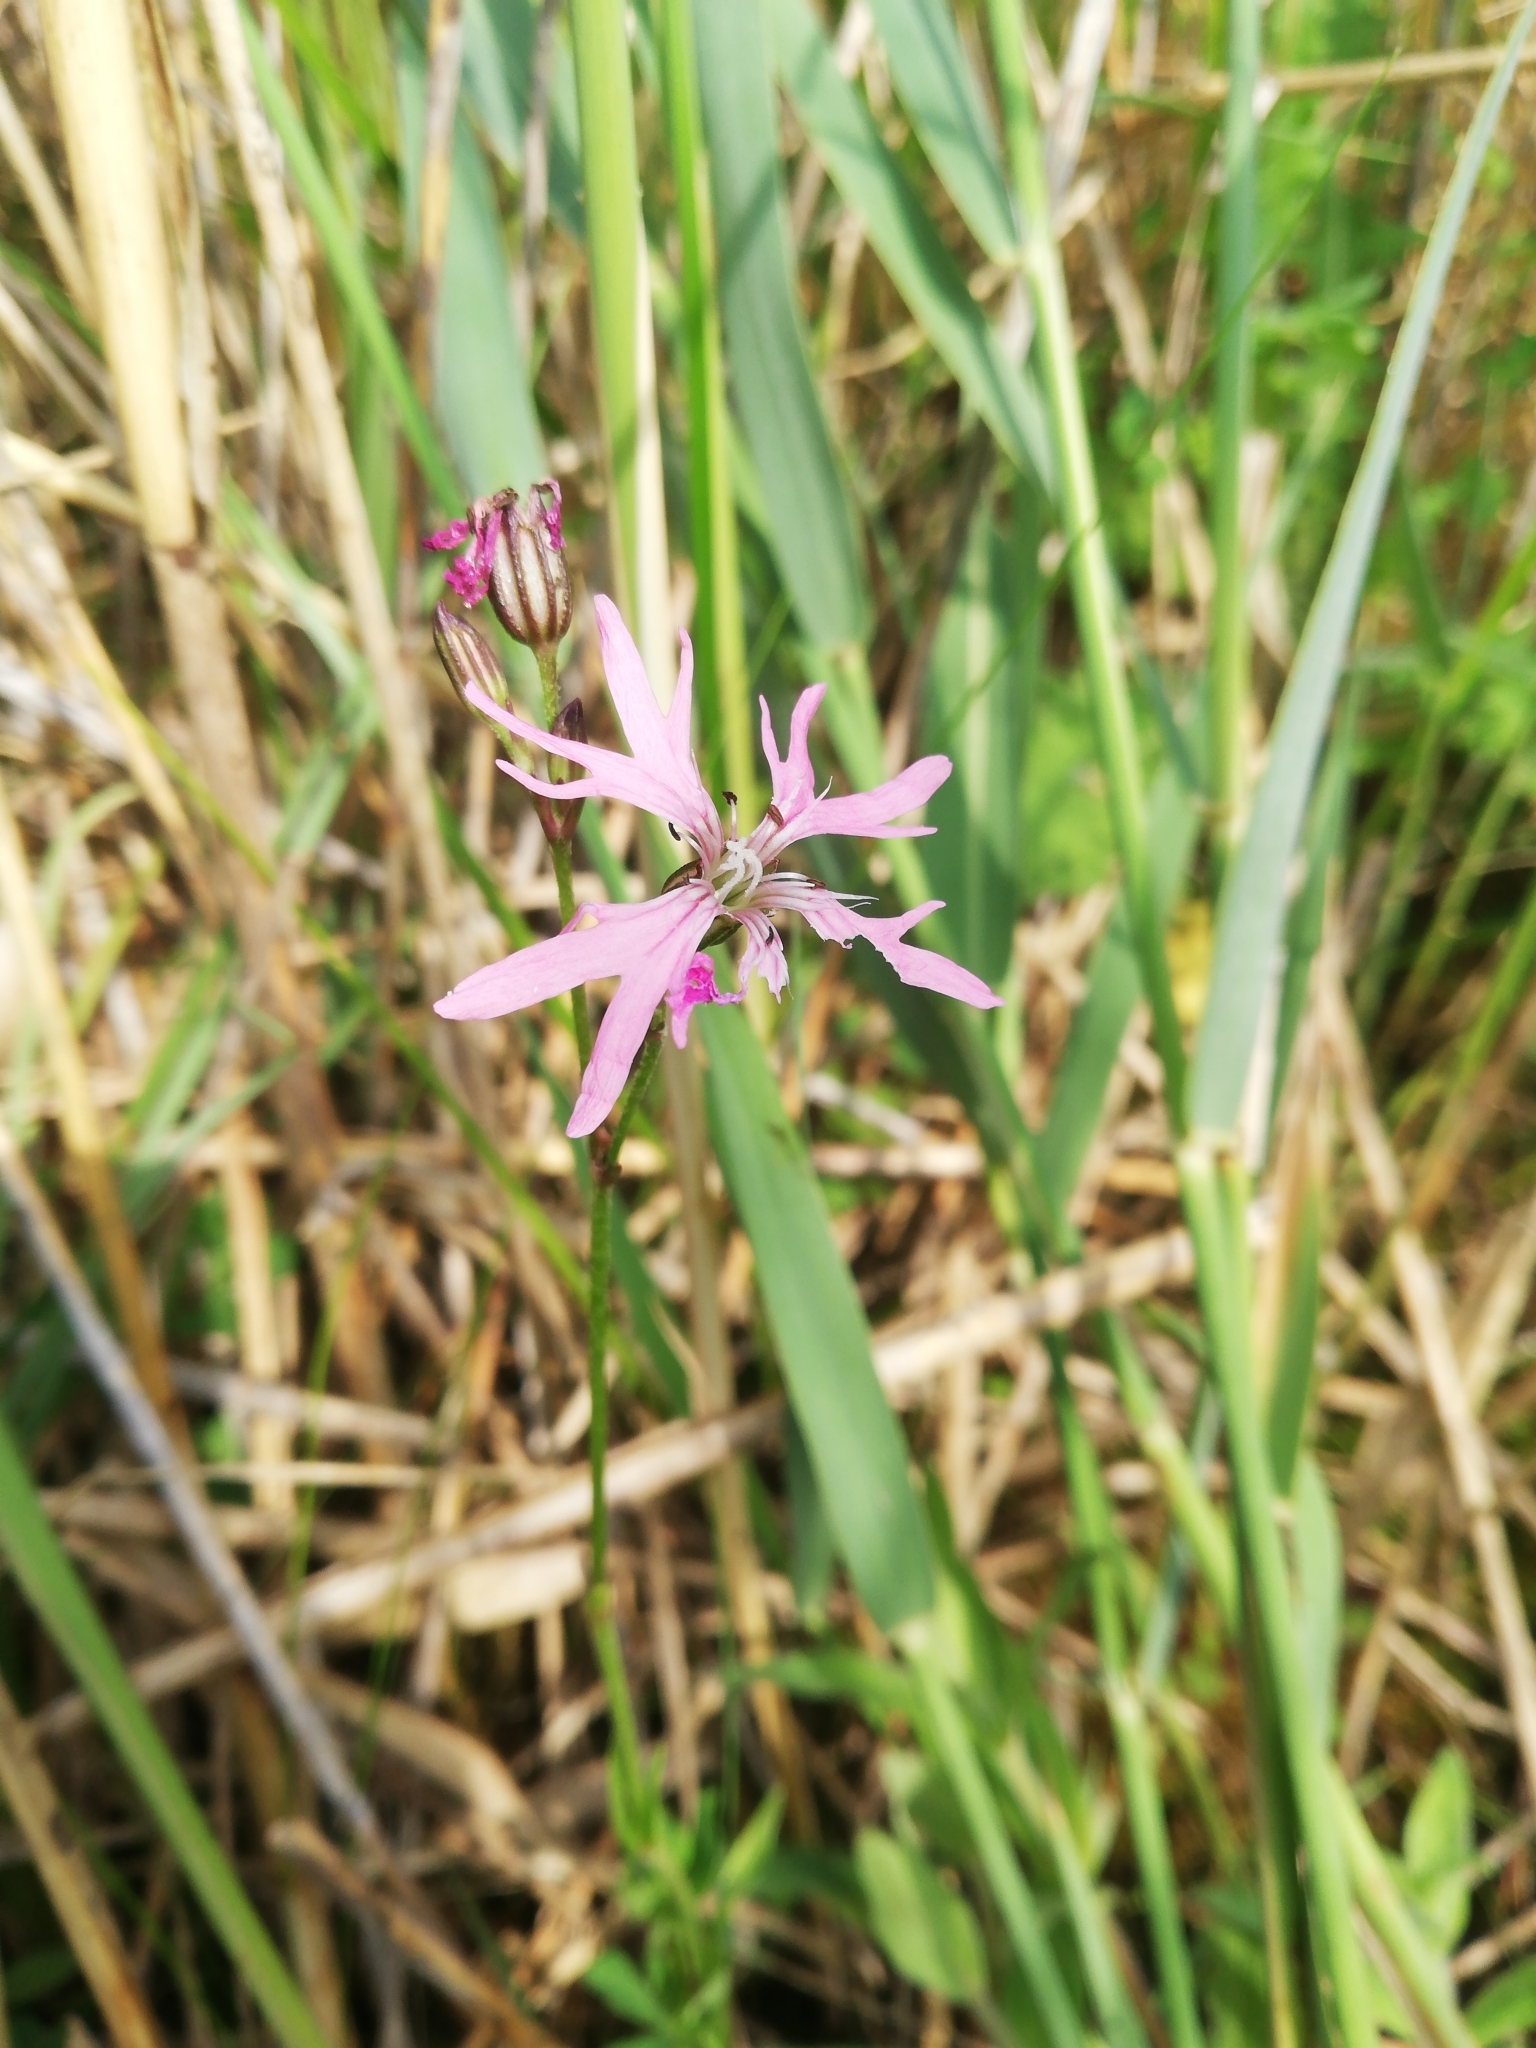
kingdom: Plantae
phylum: Tracheophyta
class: Magnoliopsida
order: Caryophyllales
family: Caryophyllaceae
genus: Silene
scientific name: Silene flos-cuculi
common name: Ragged-robin
